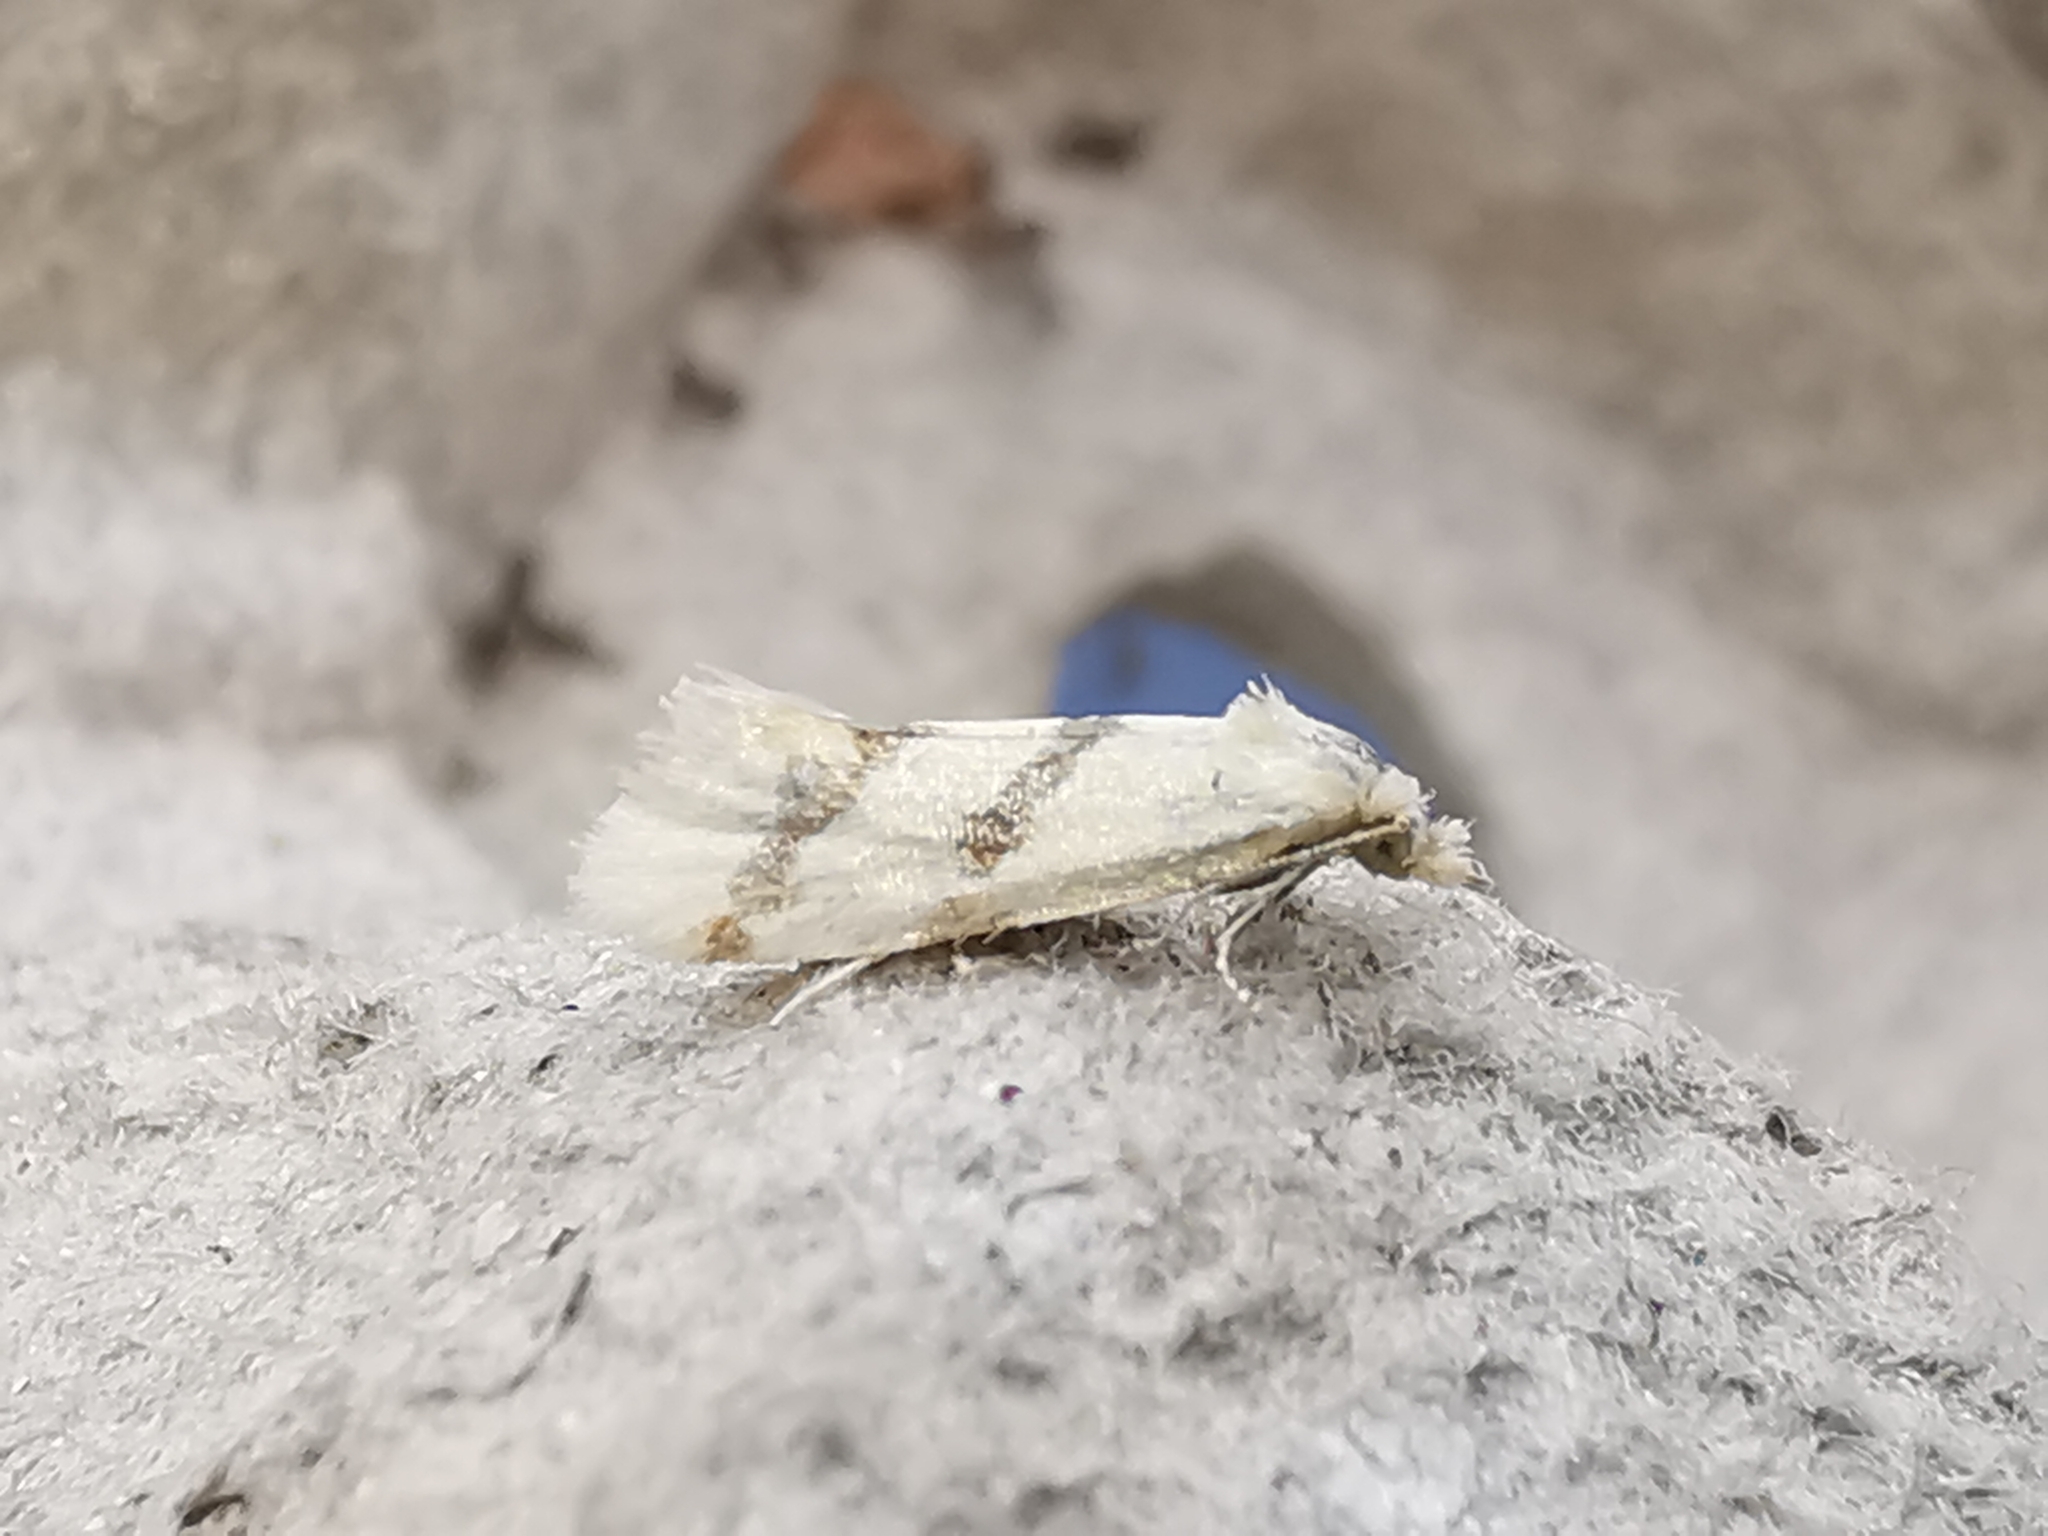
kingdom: Animalia
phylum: Arthropoda
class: Insecta
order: Lepidoptera
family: Tortricidae
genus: Aethes
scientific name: Aethes beatricella
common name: Hemlock yellow conch
